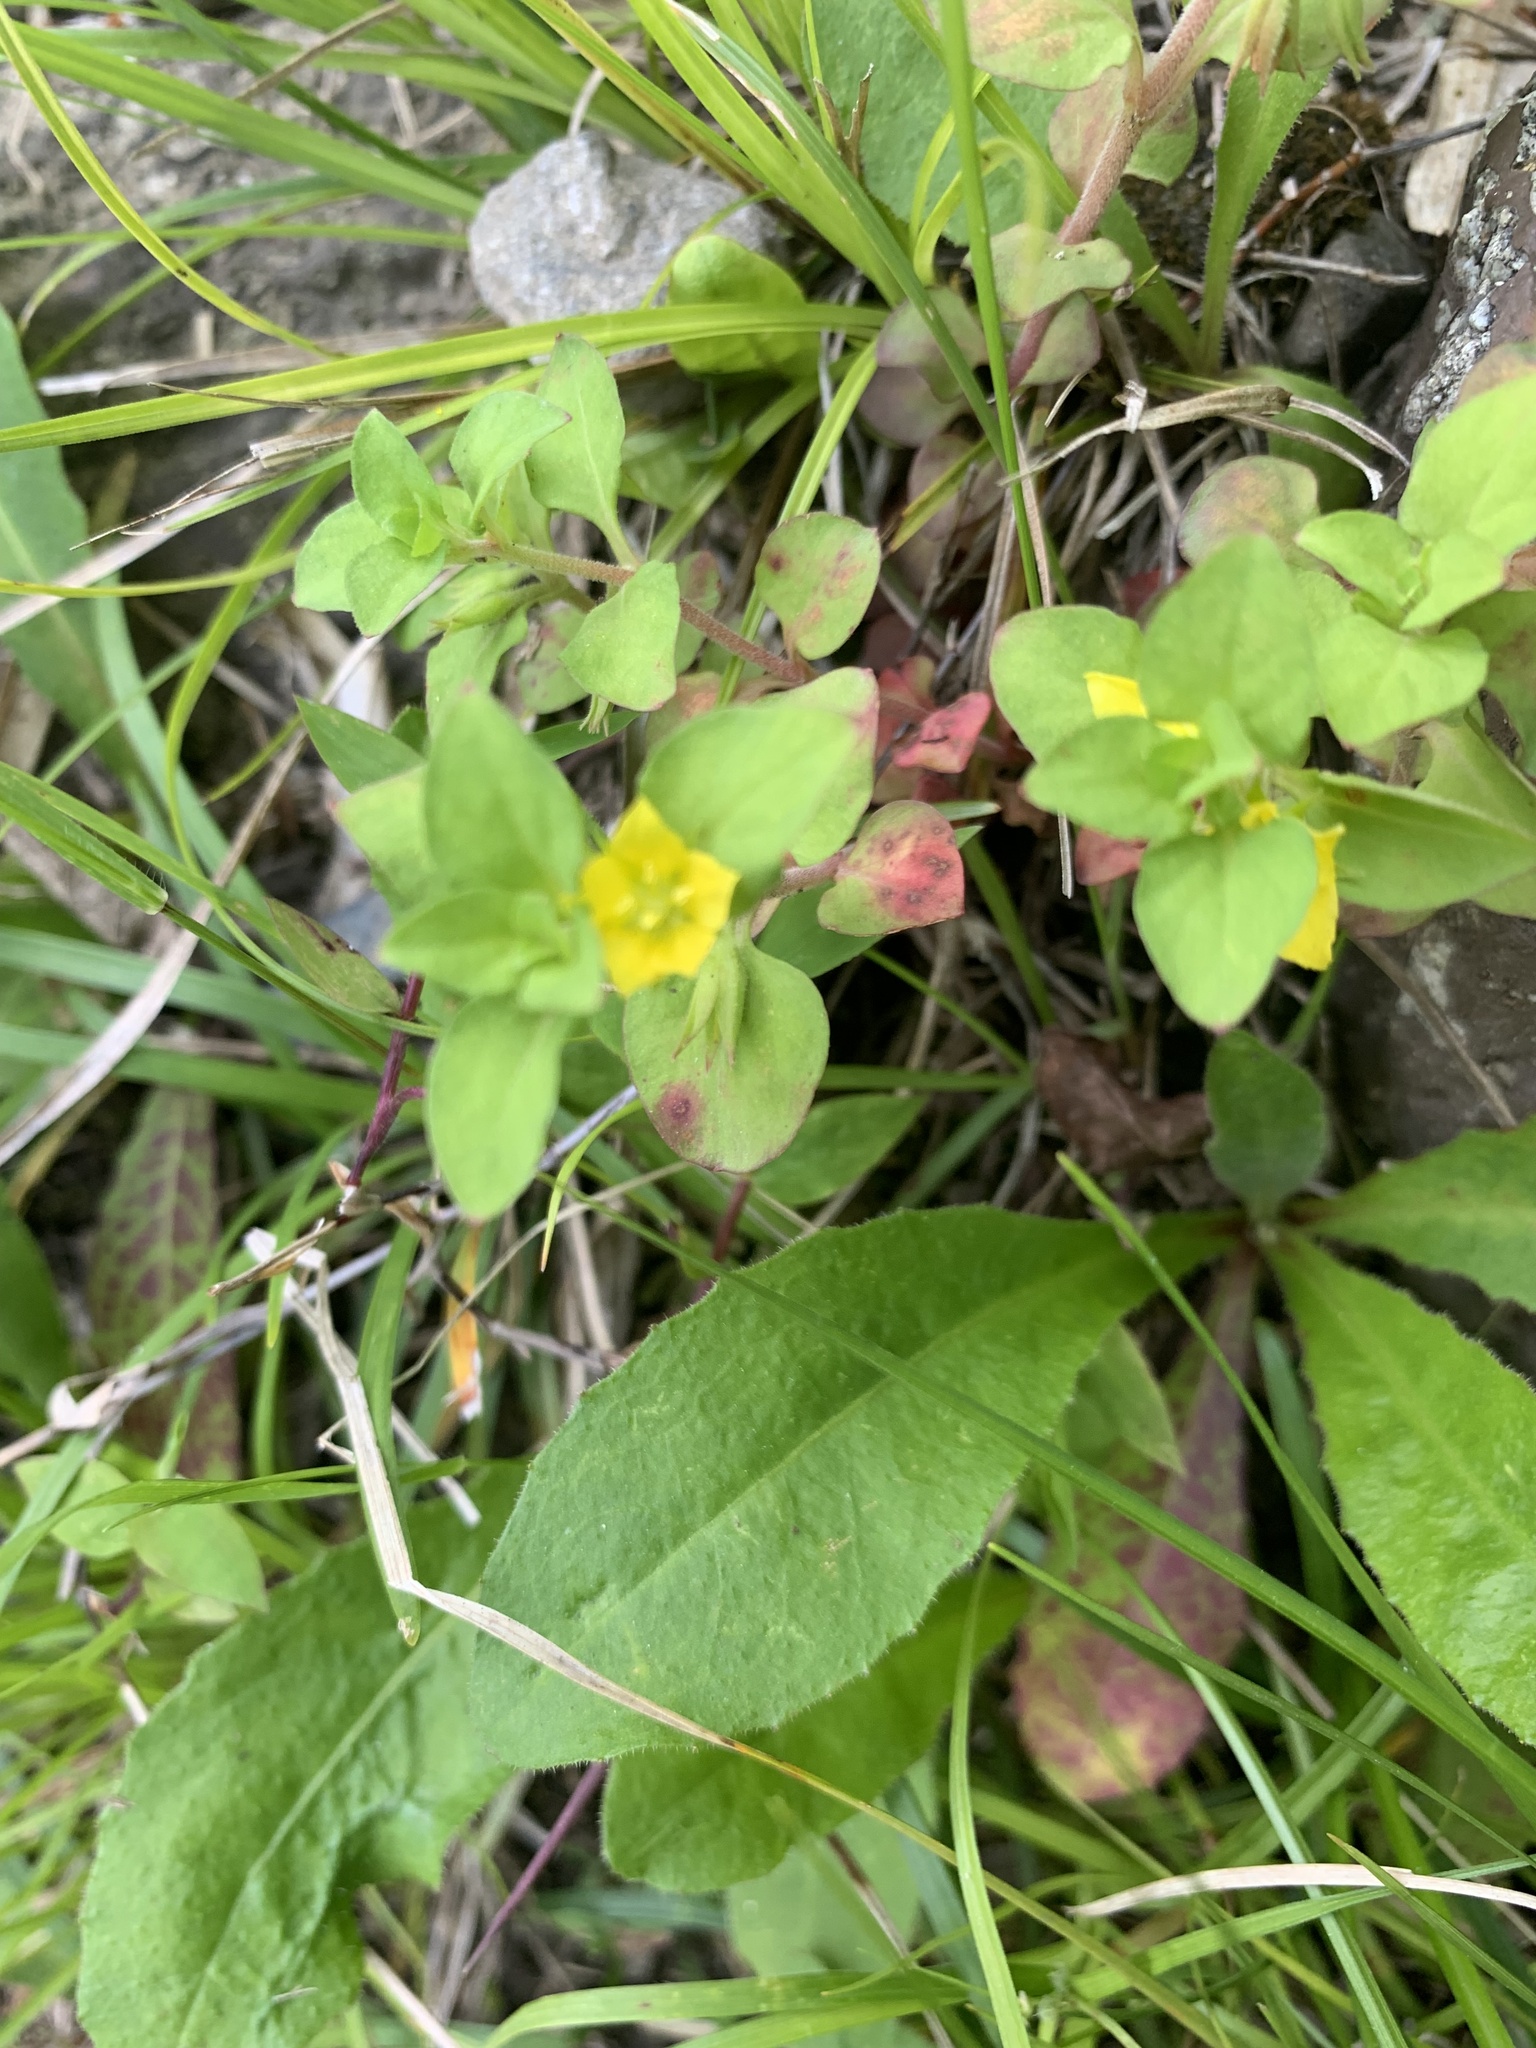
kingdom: Plantae
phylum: Tracheophyta
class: Magnoliopsida
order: Ericales
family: Primulaceae
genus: Lysimachia
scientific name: Lysimachia japonica
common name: Japanese yellow loosestrife
